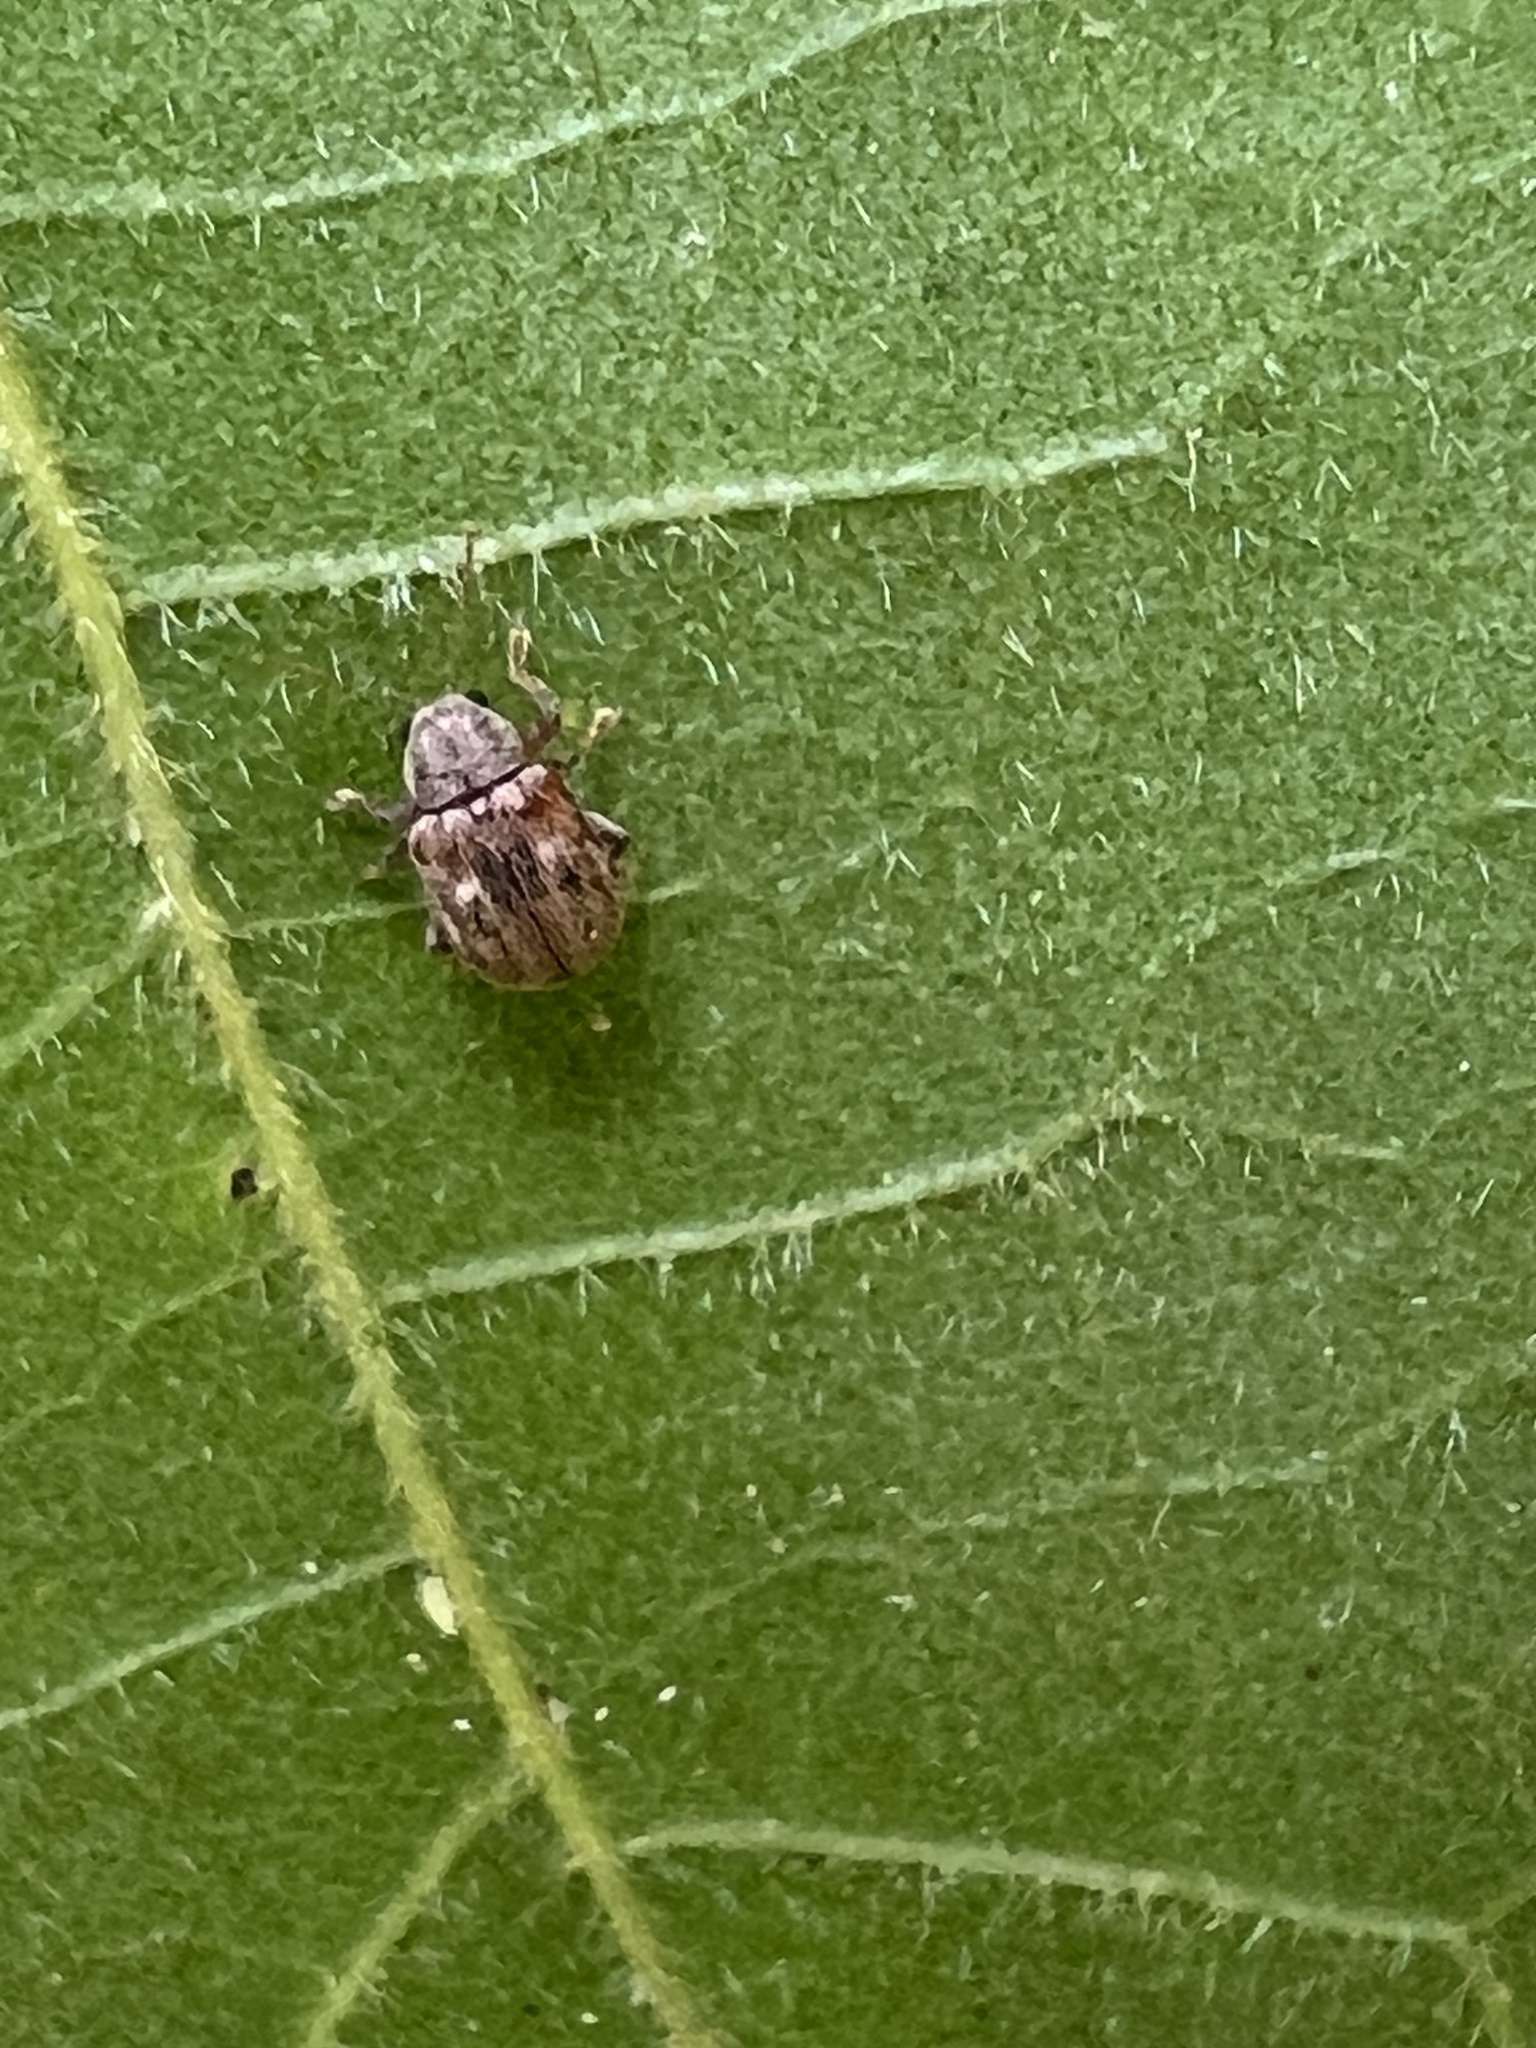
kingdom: Animalia
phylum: Arthropoda
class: Insecta
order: Coleoptera
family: Chrysomelidae
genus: Demotina
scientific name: Demotina modesta
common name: Leaf beetle
